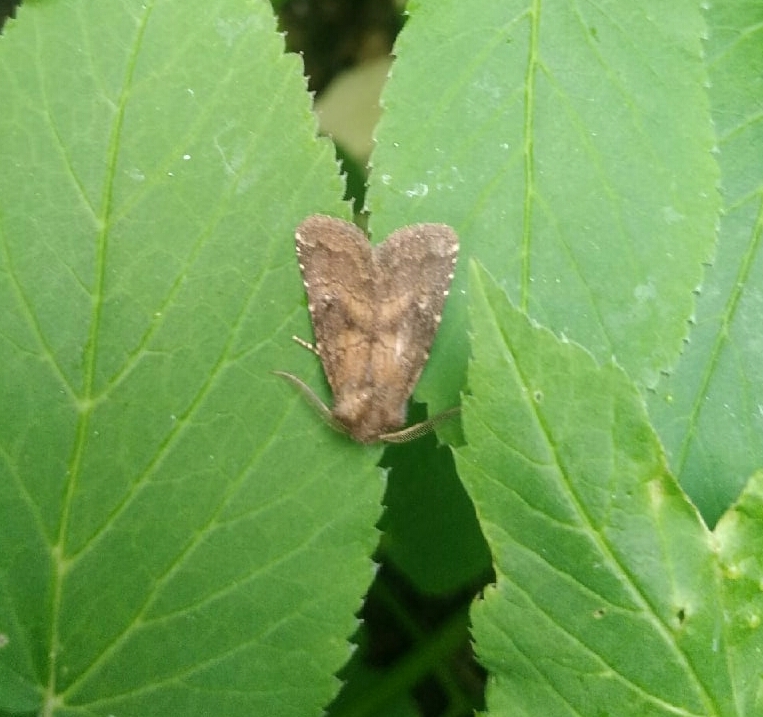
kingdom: Animalia
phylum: Arthropoda
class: Insecta
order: Lepidoptera
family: Noctuidae
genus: Charanyca
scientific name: Charanyca ferruginea
